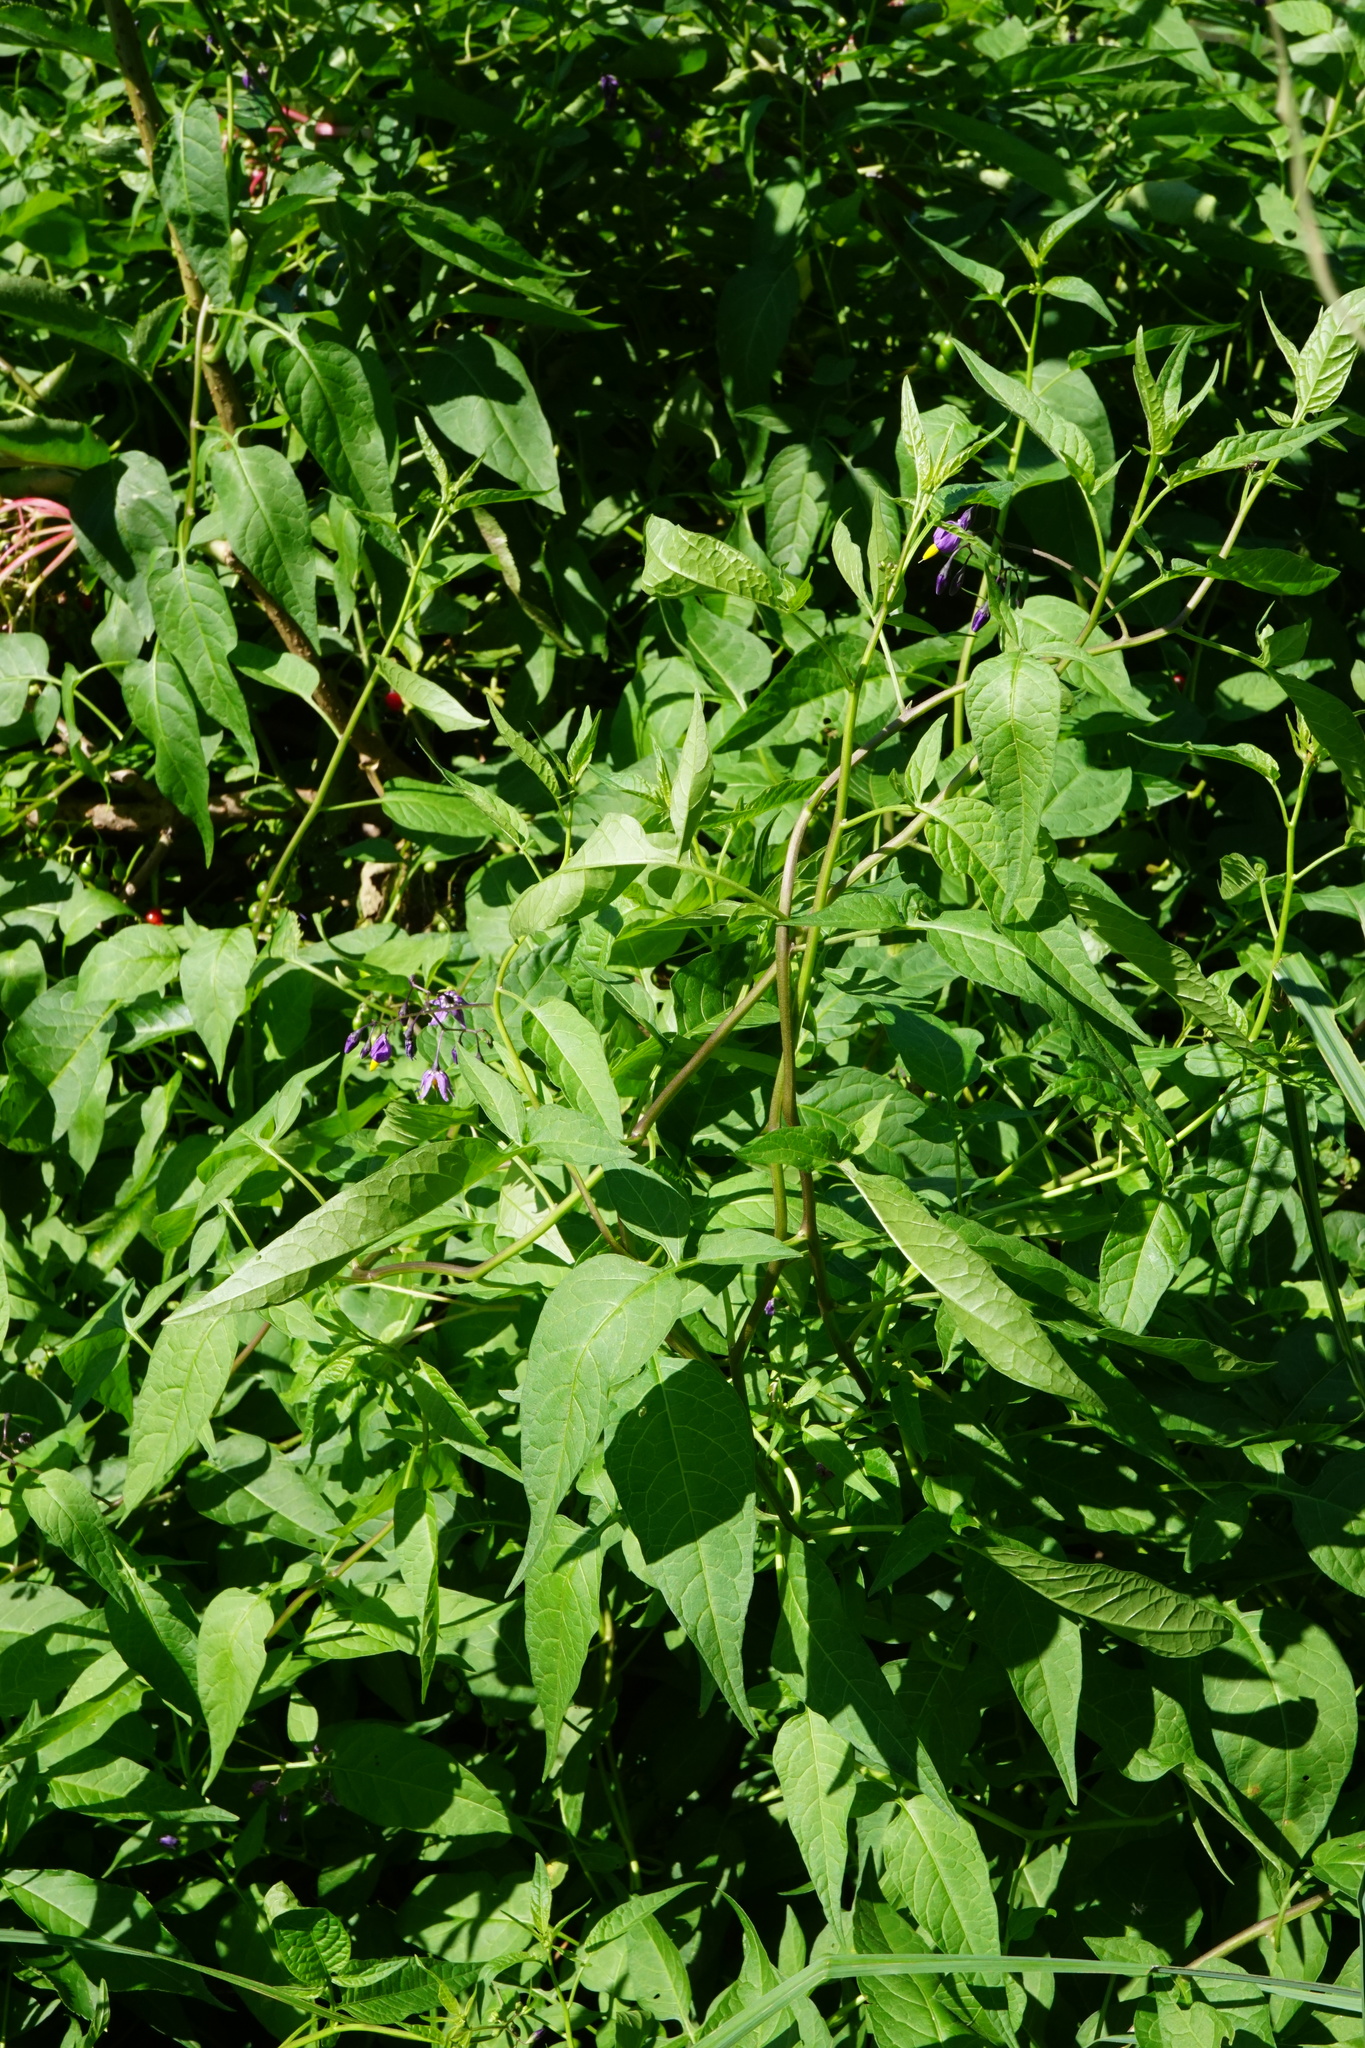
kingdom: Plantae
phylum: Tracheophyta
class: Magnoliopsida
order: Solanales
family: Solanaceae
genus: Solanum
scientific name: Solanum dulcamara
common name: Climbing nightshade
